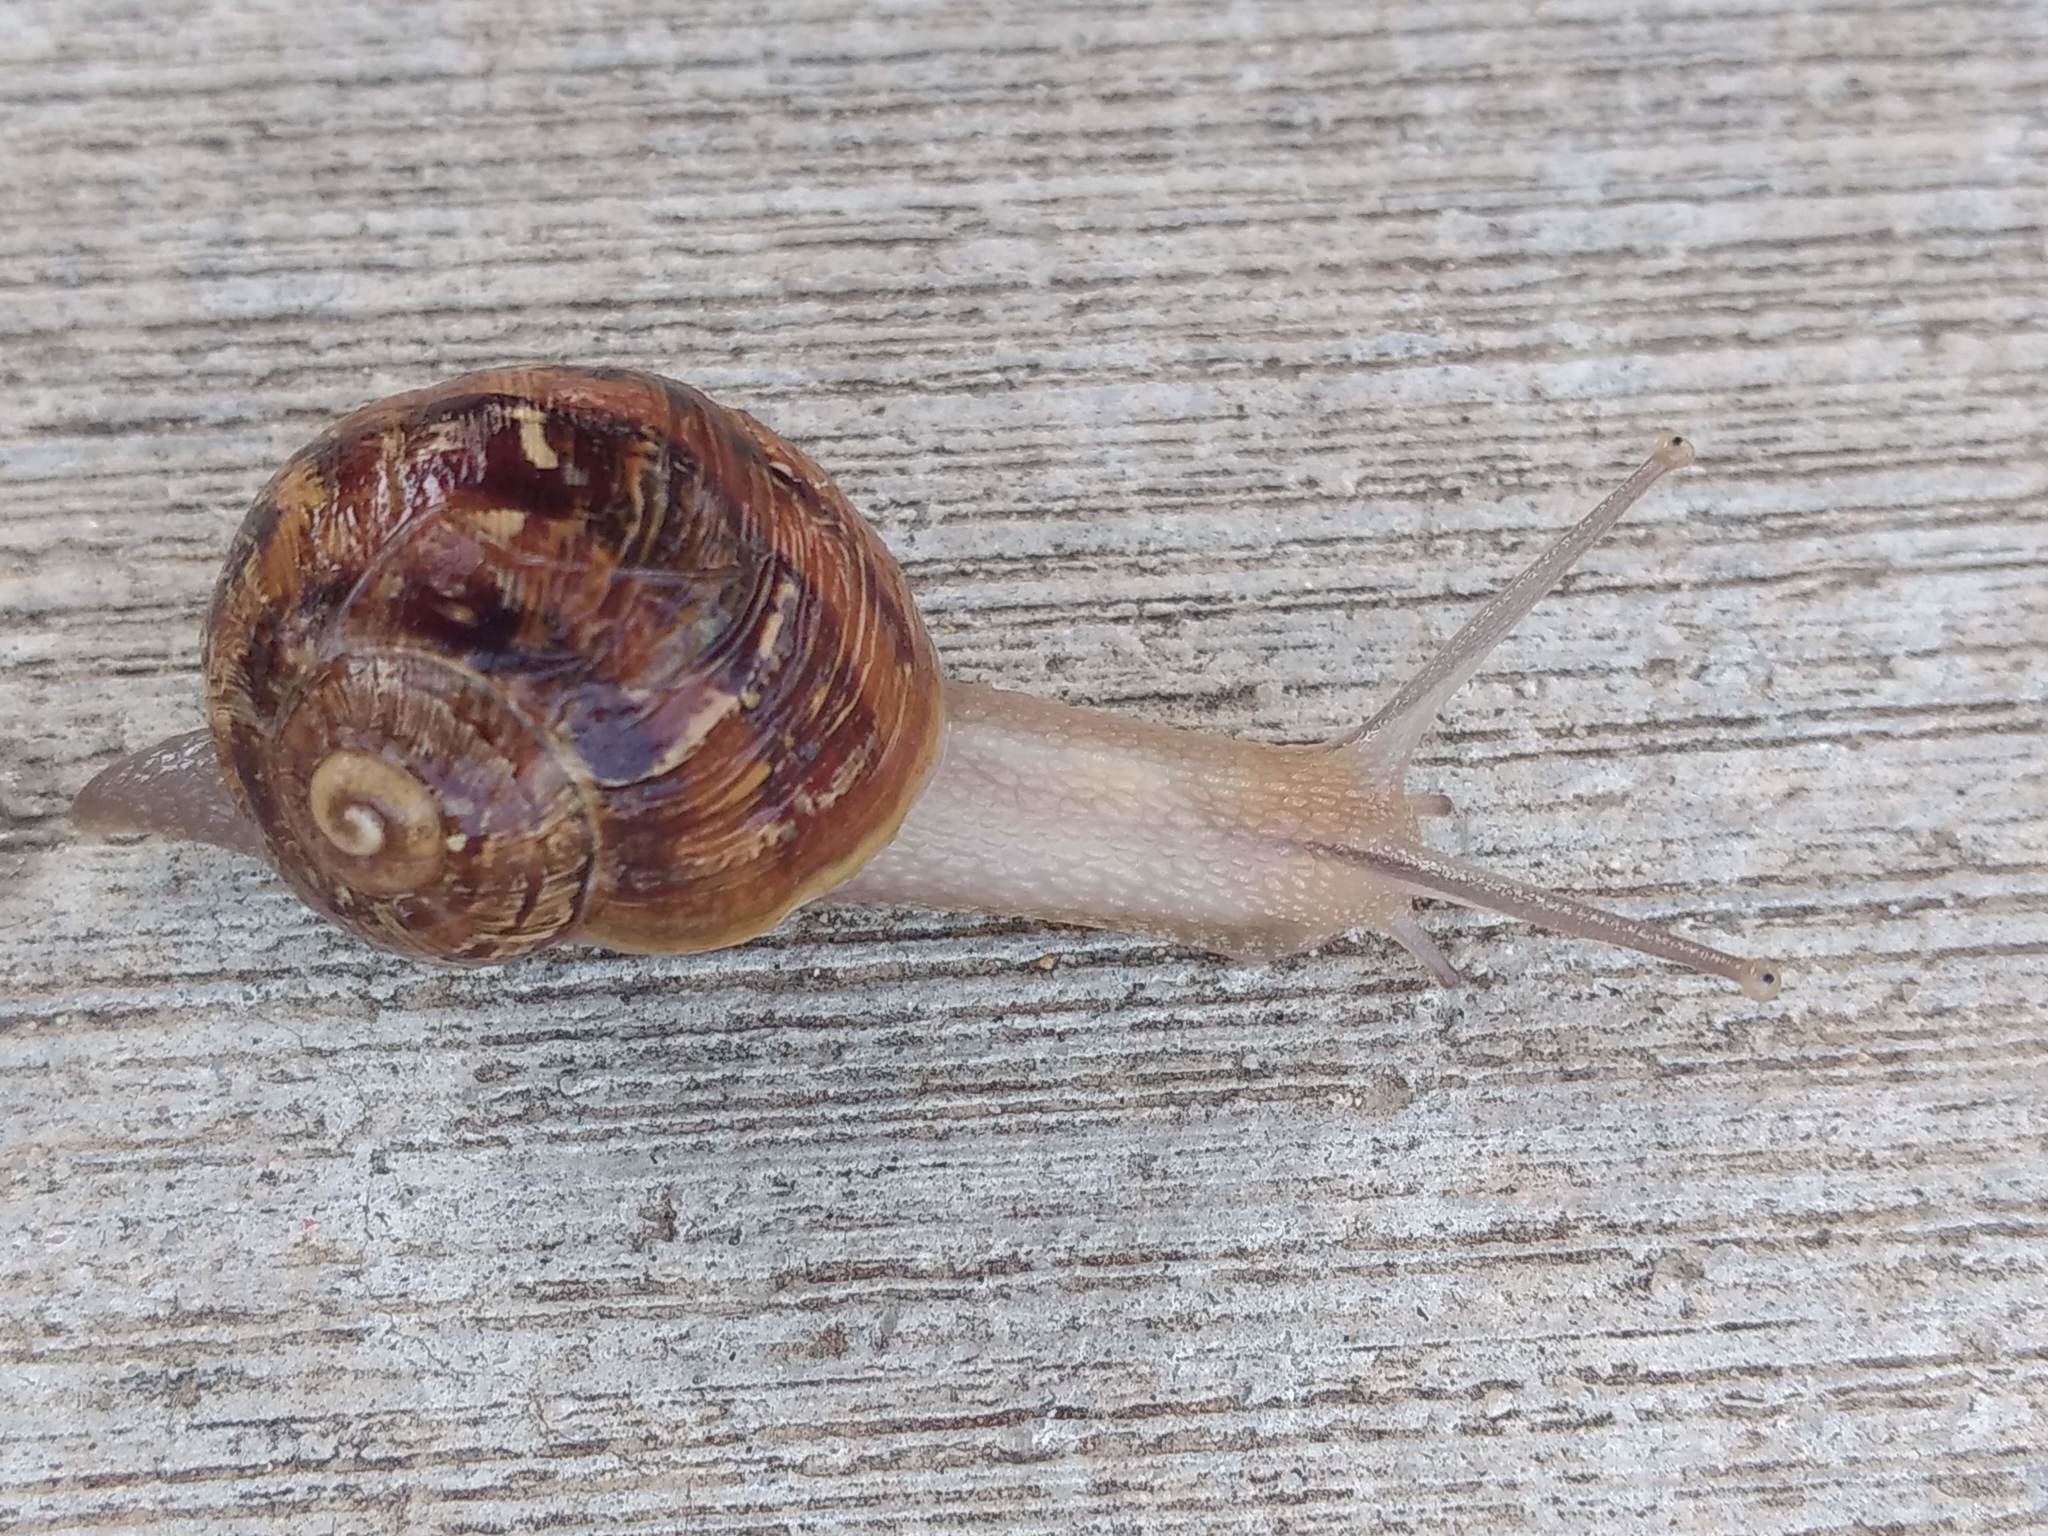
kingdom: Animalia
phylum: Mollusca
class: Gastropoda
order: Stylommatophora
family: Helicidae
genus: Cornu
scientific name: Cornu aspersum
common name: Brown garden snail
